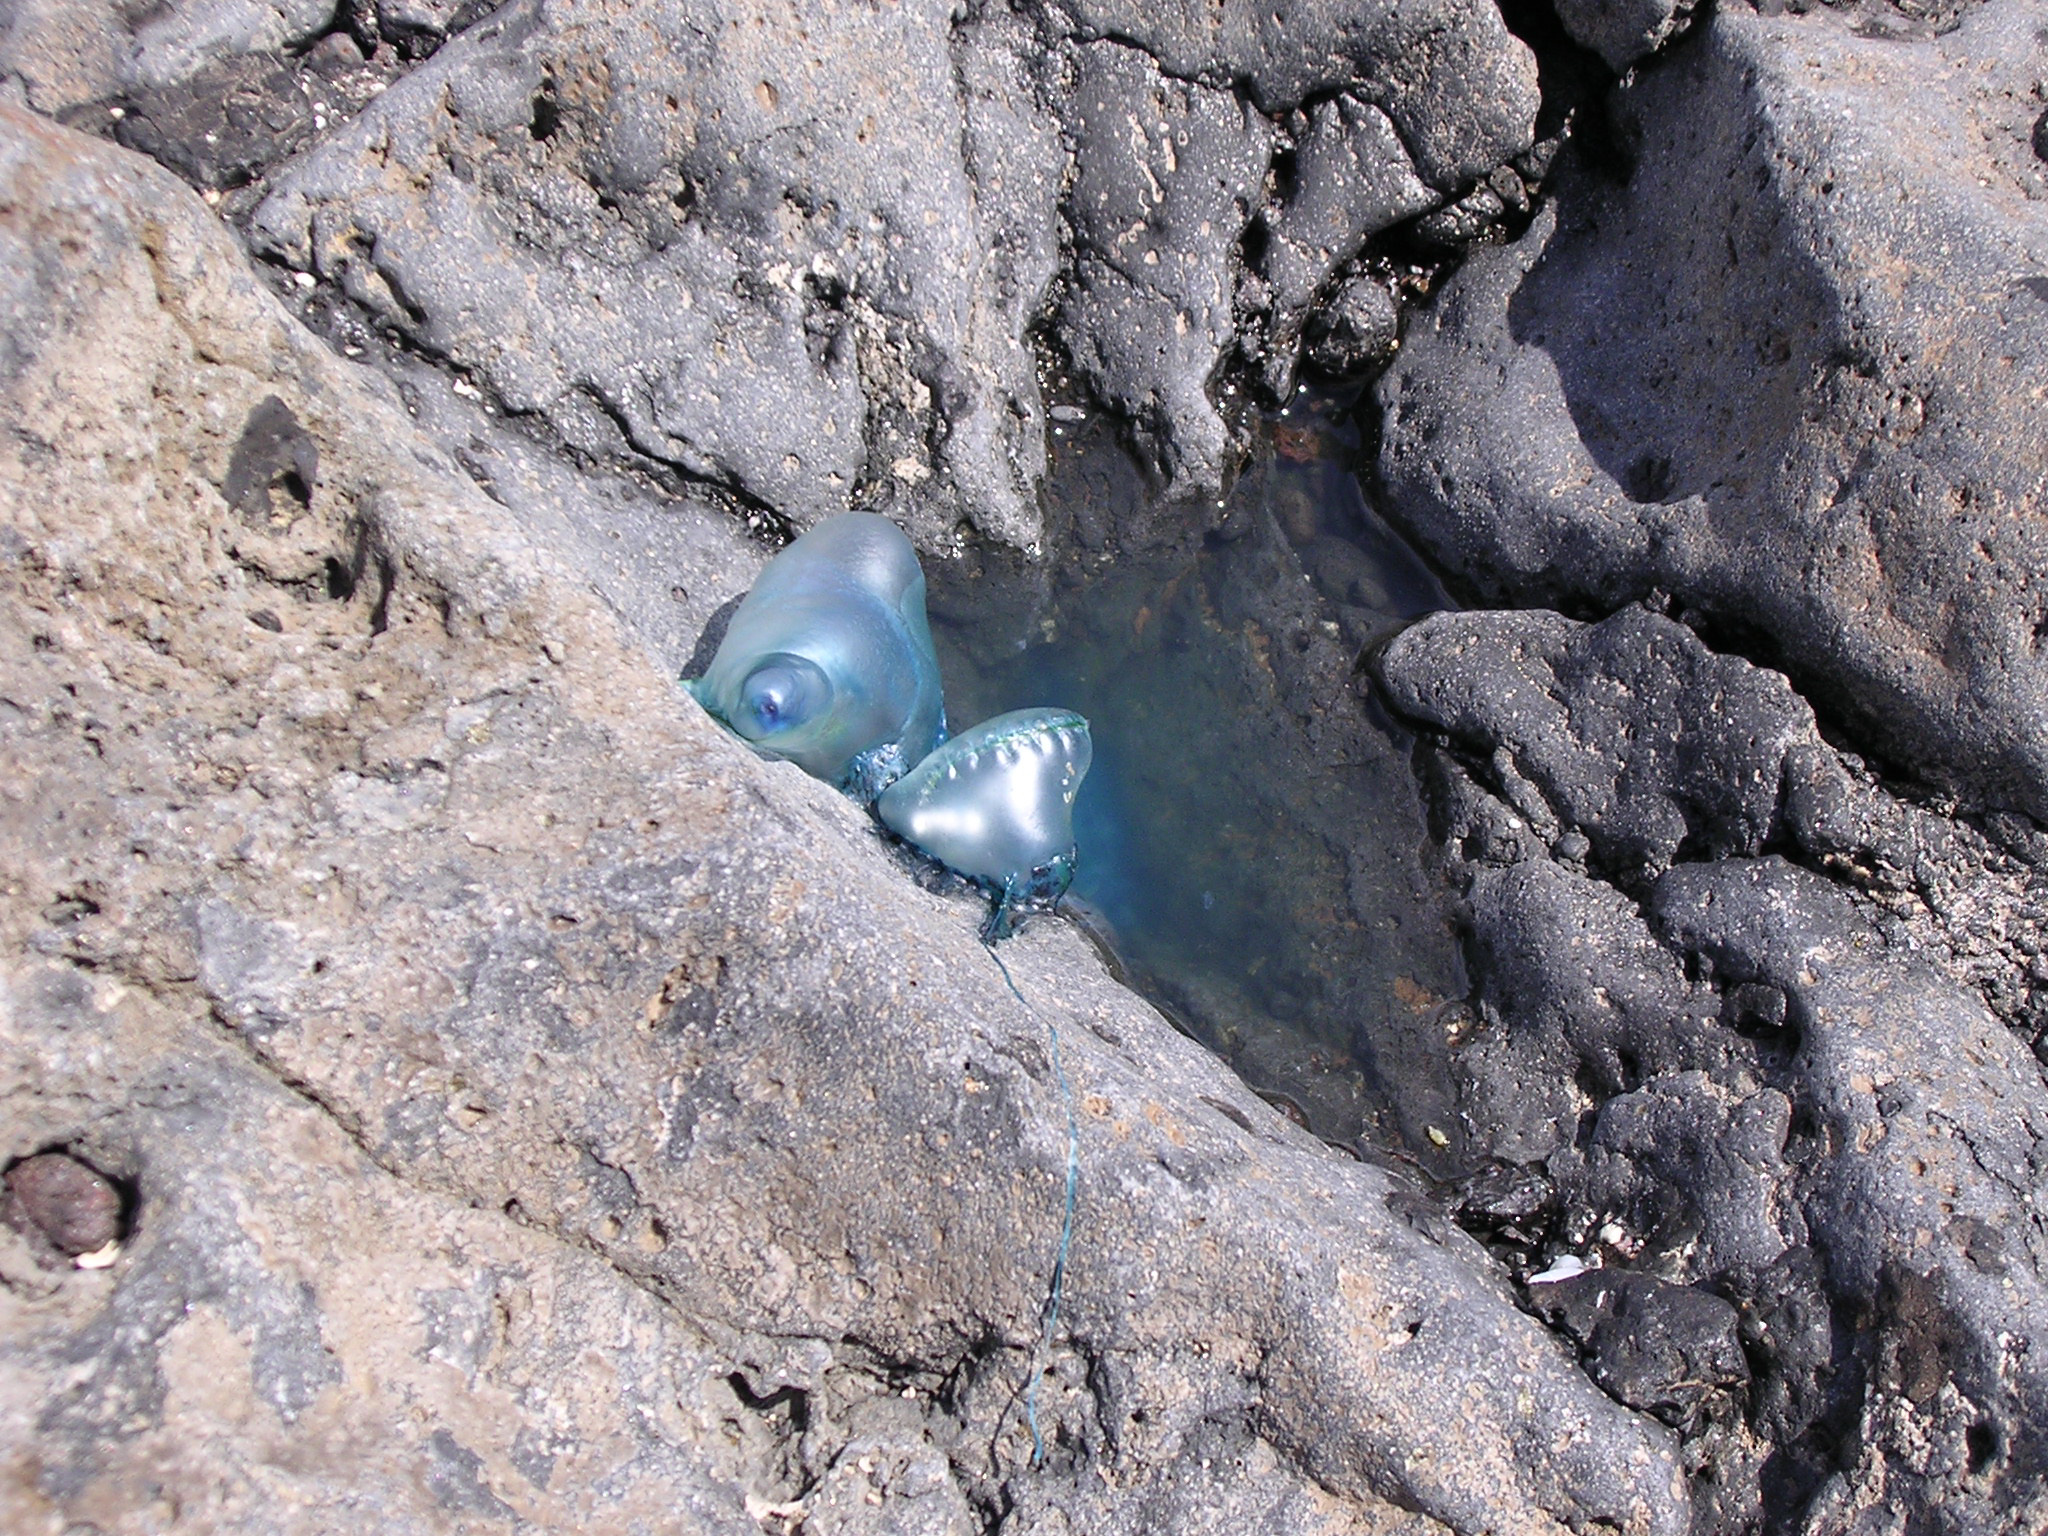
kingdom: Animalia
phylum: Cnidaria
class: Hydrozoa
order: Siphonophorae
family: Physaliidae
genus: Physalia
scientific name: Physalia physalis
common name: Portuguese man-of-war
